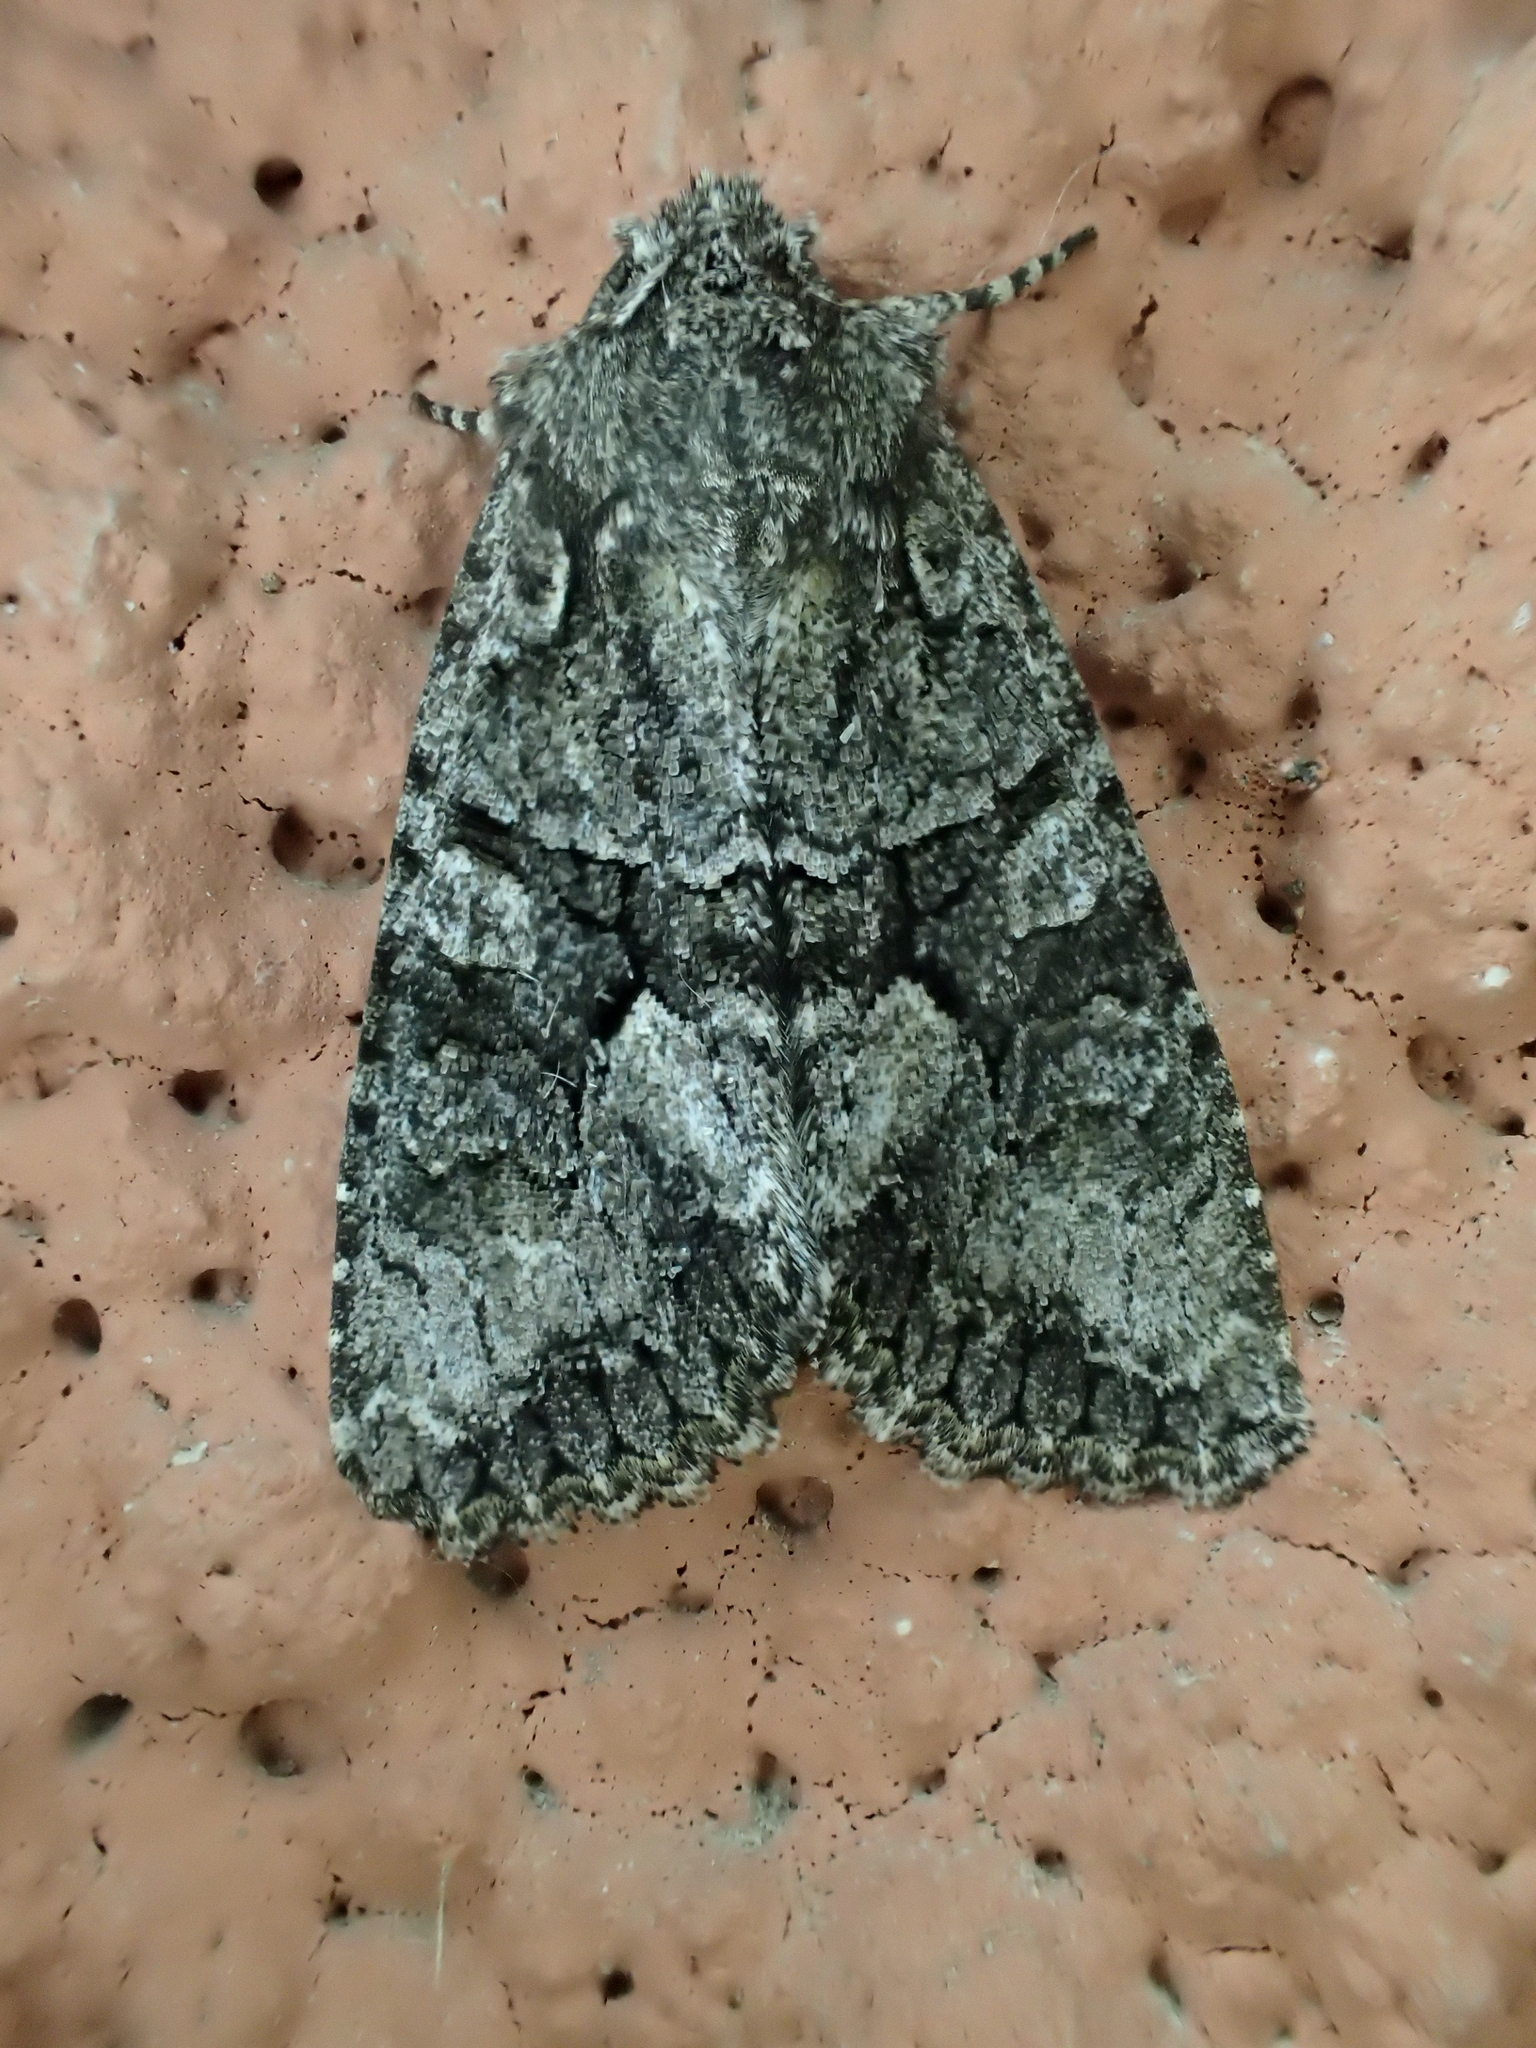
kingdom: Animalia
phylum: Arthropoda
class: Insecta
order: Lepidoptera
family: Noctuidae
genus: Dryobotodes
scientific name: Dryobotodes monochroma
